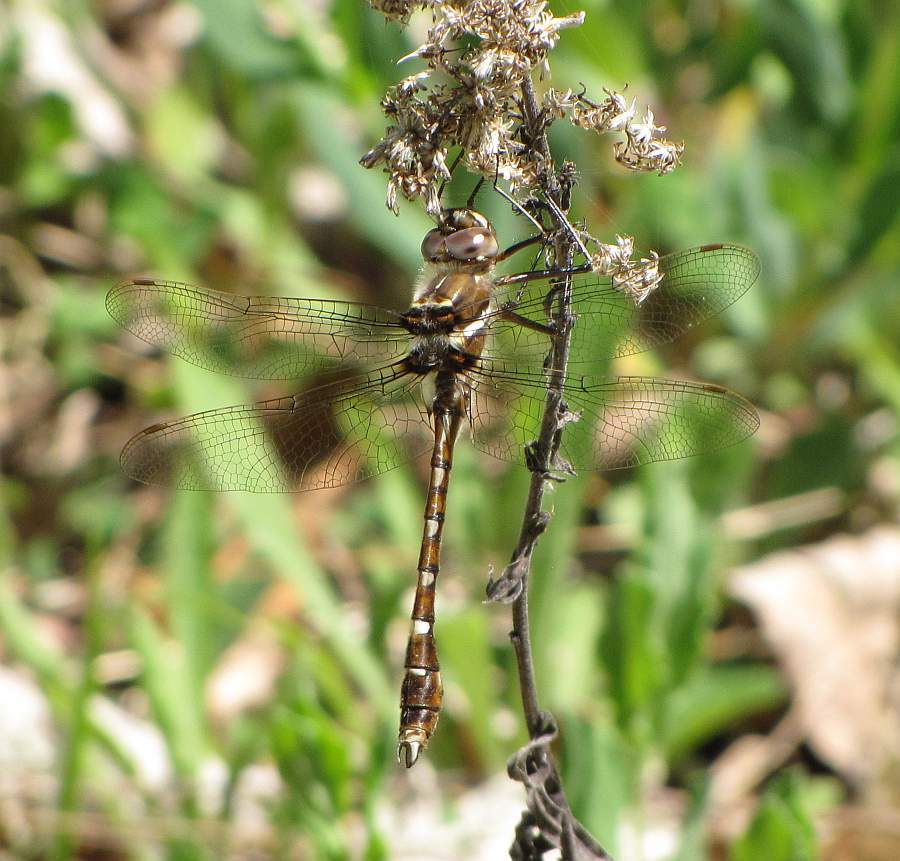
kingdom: Animalia
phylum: Arthropoda
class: Insecta
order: Odonata
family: Macromiidae
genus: Didymops
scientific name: Didymops transversa
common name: Stream cruiser
